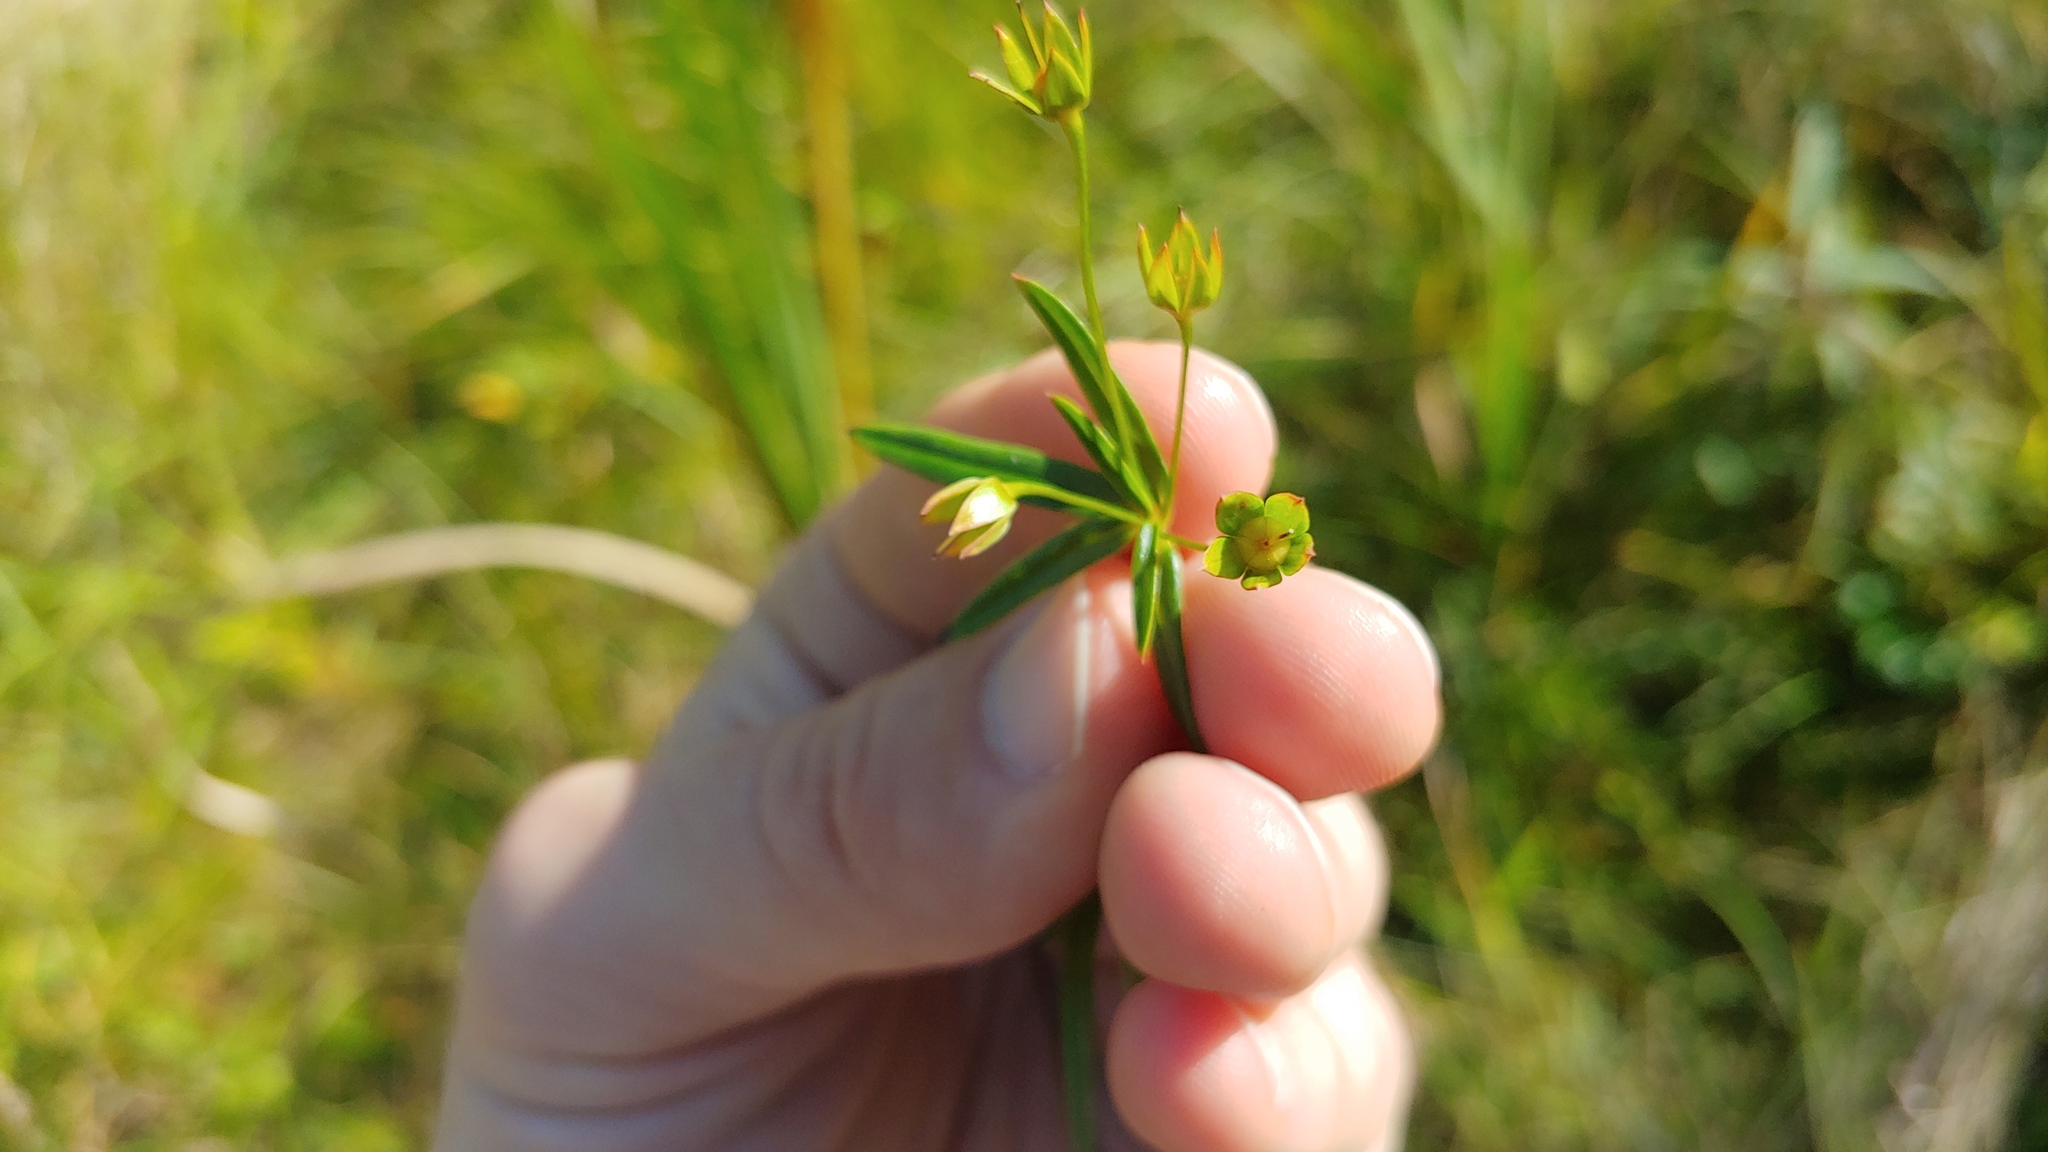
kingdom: Plantae
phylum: Tracheophyta
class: Magnoliopsida
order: Ericales
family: Primulaceae
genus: Lysimachia
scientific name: Lysimachia quadriflora
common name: Four-flowered loosestrife
